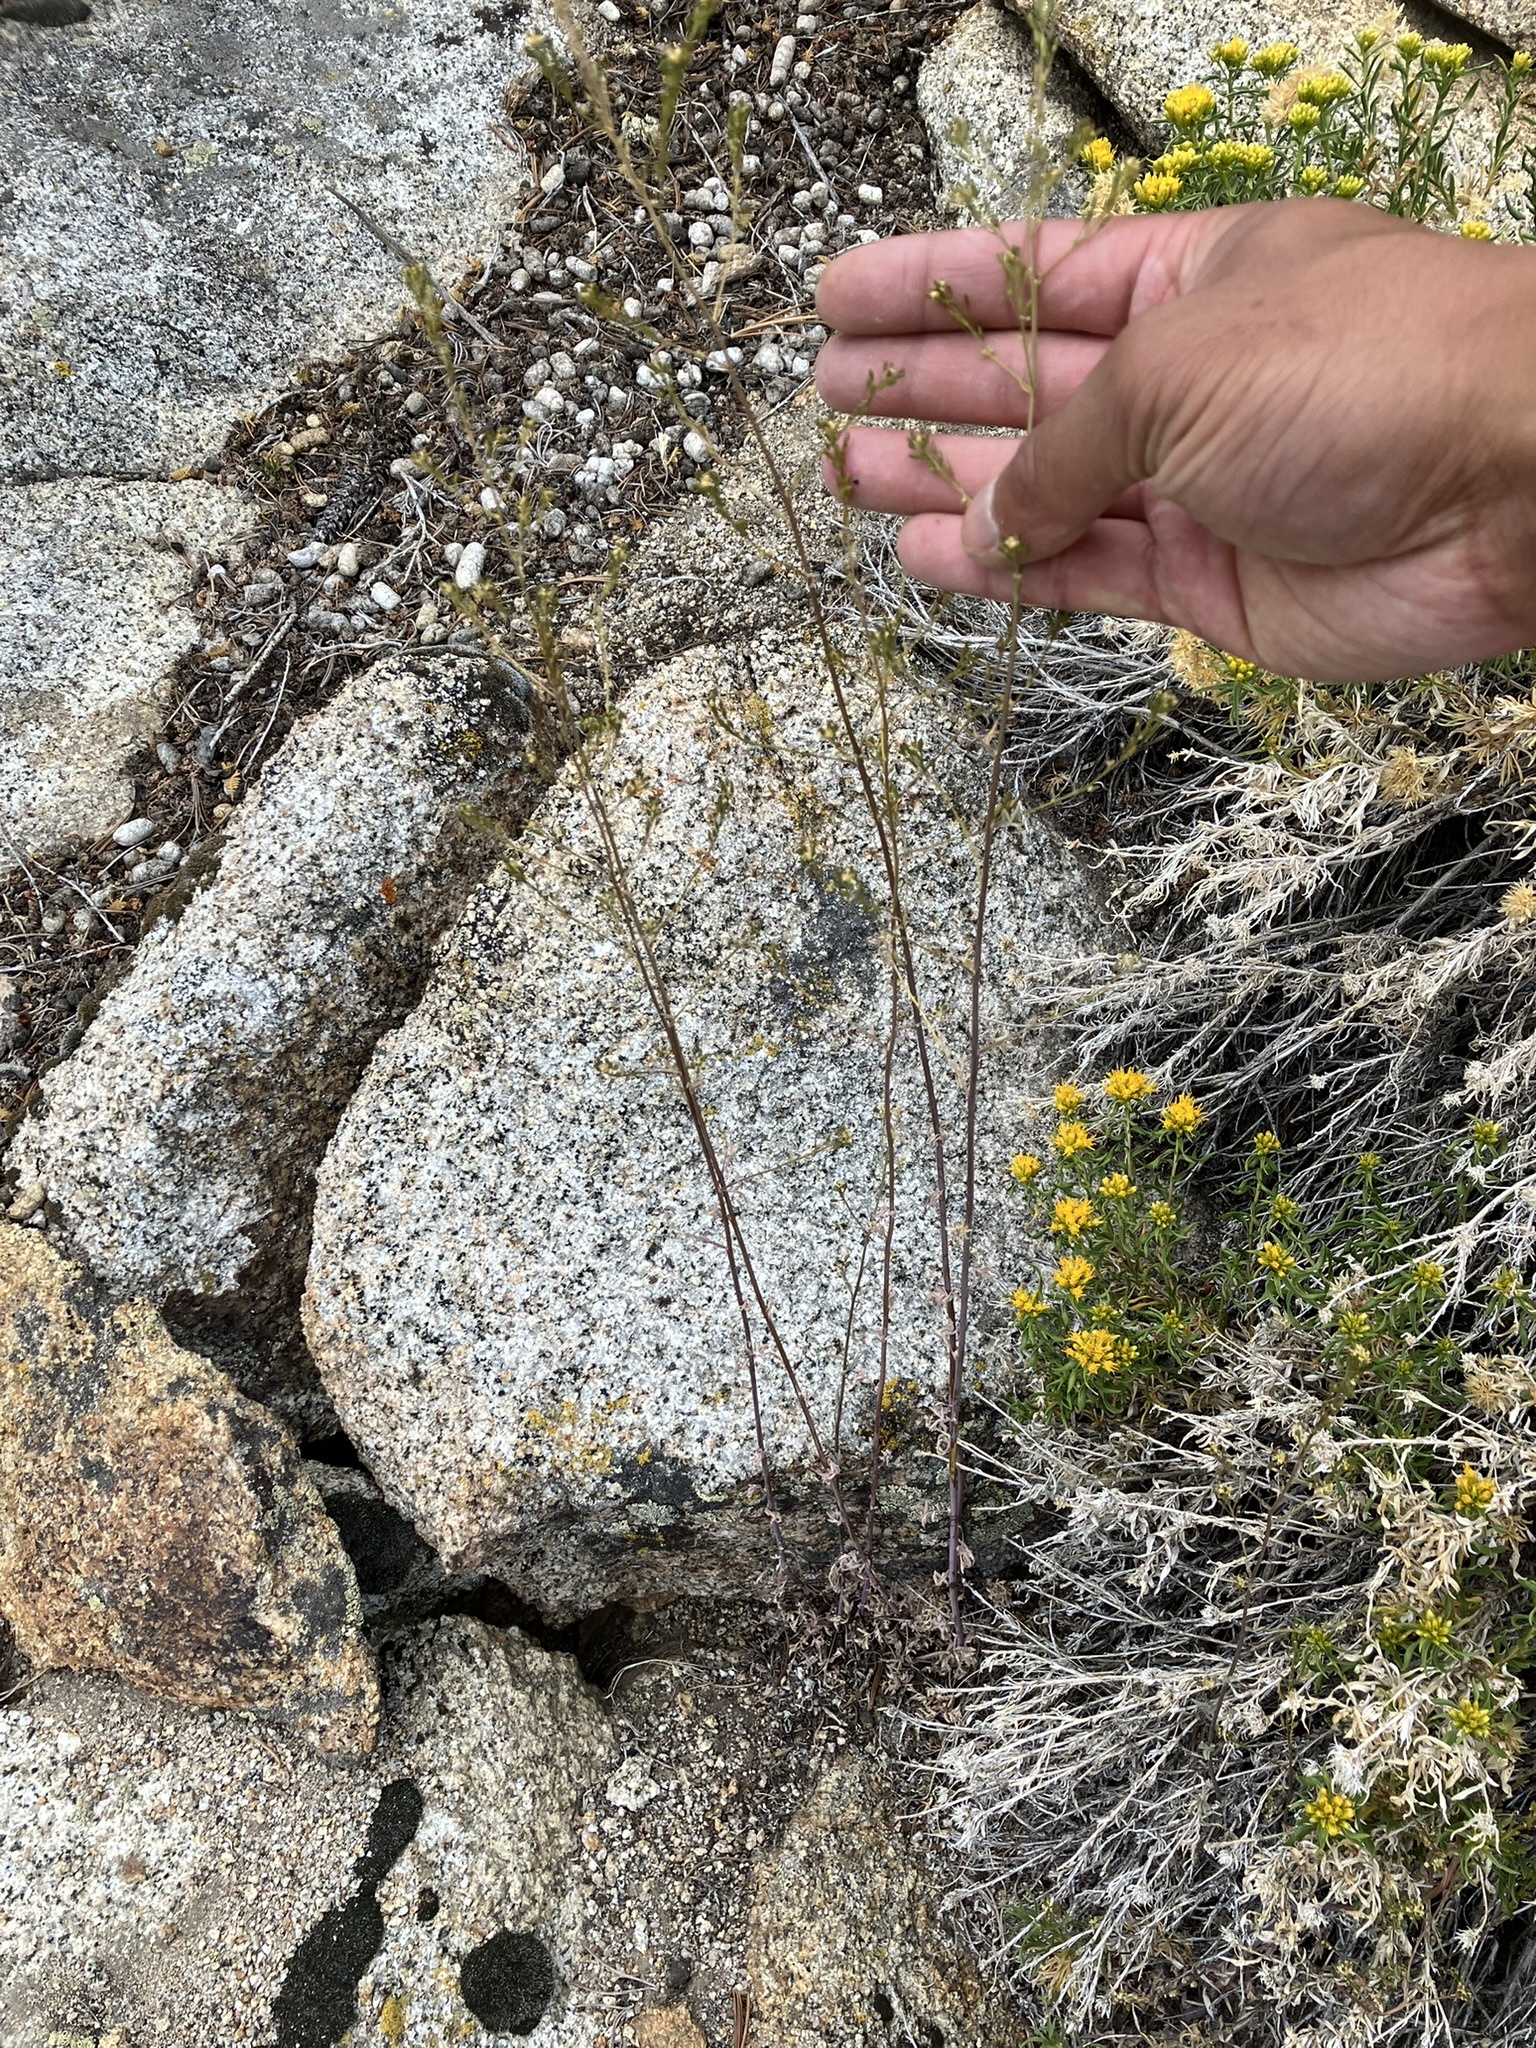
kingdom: Plantae
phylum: Tracheophyta
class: Magnoliopsida
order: Brassicales
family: Brassicaceae
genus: Descurainia
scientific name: Descurainia californica
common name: California tansy mustard
